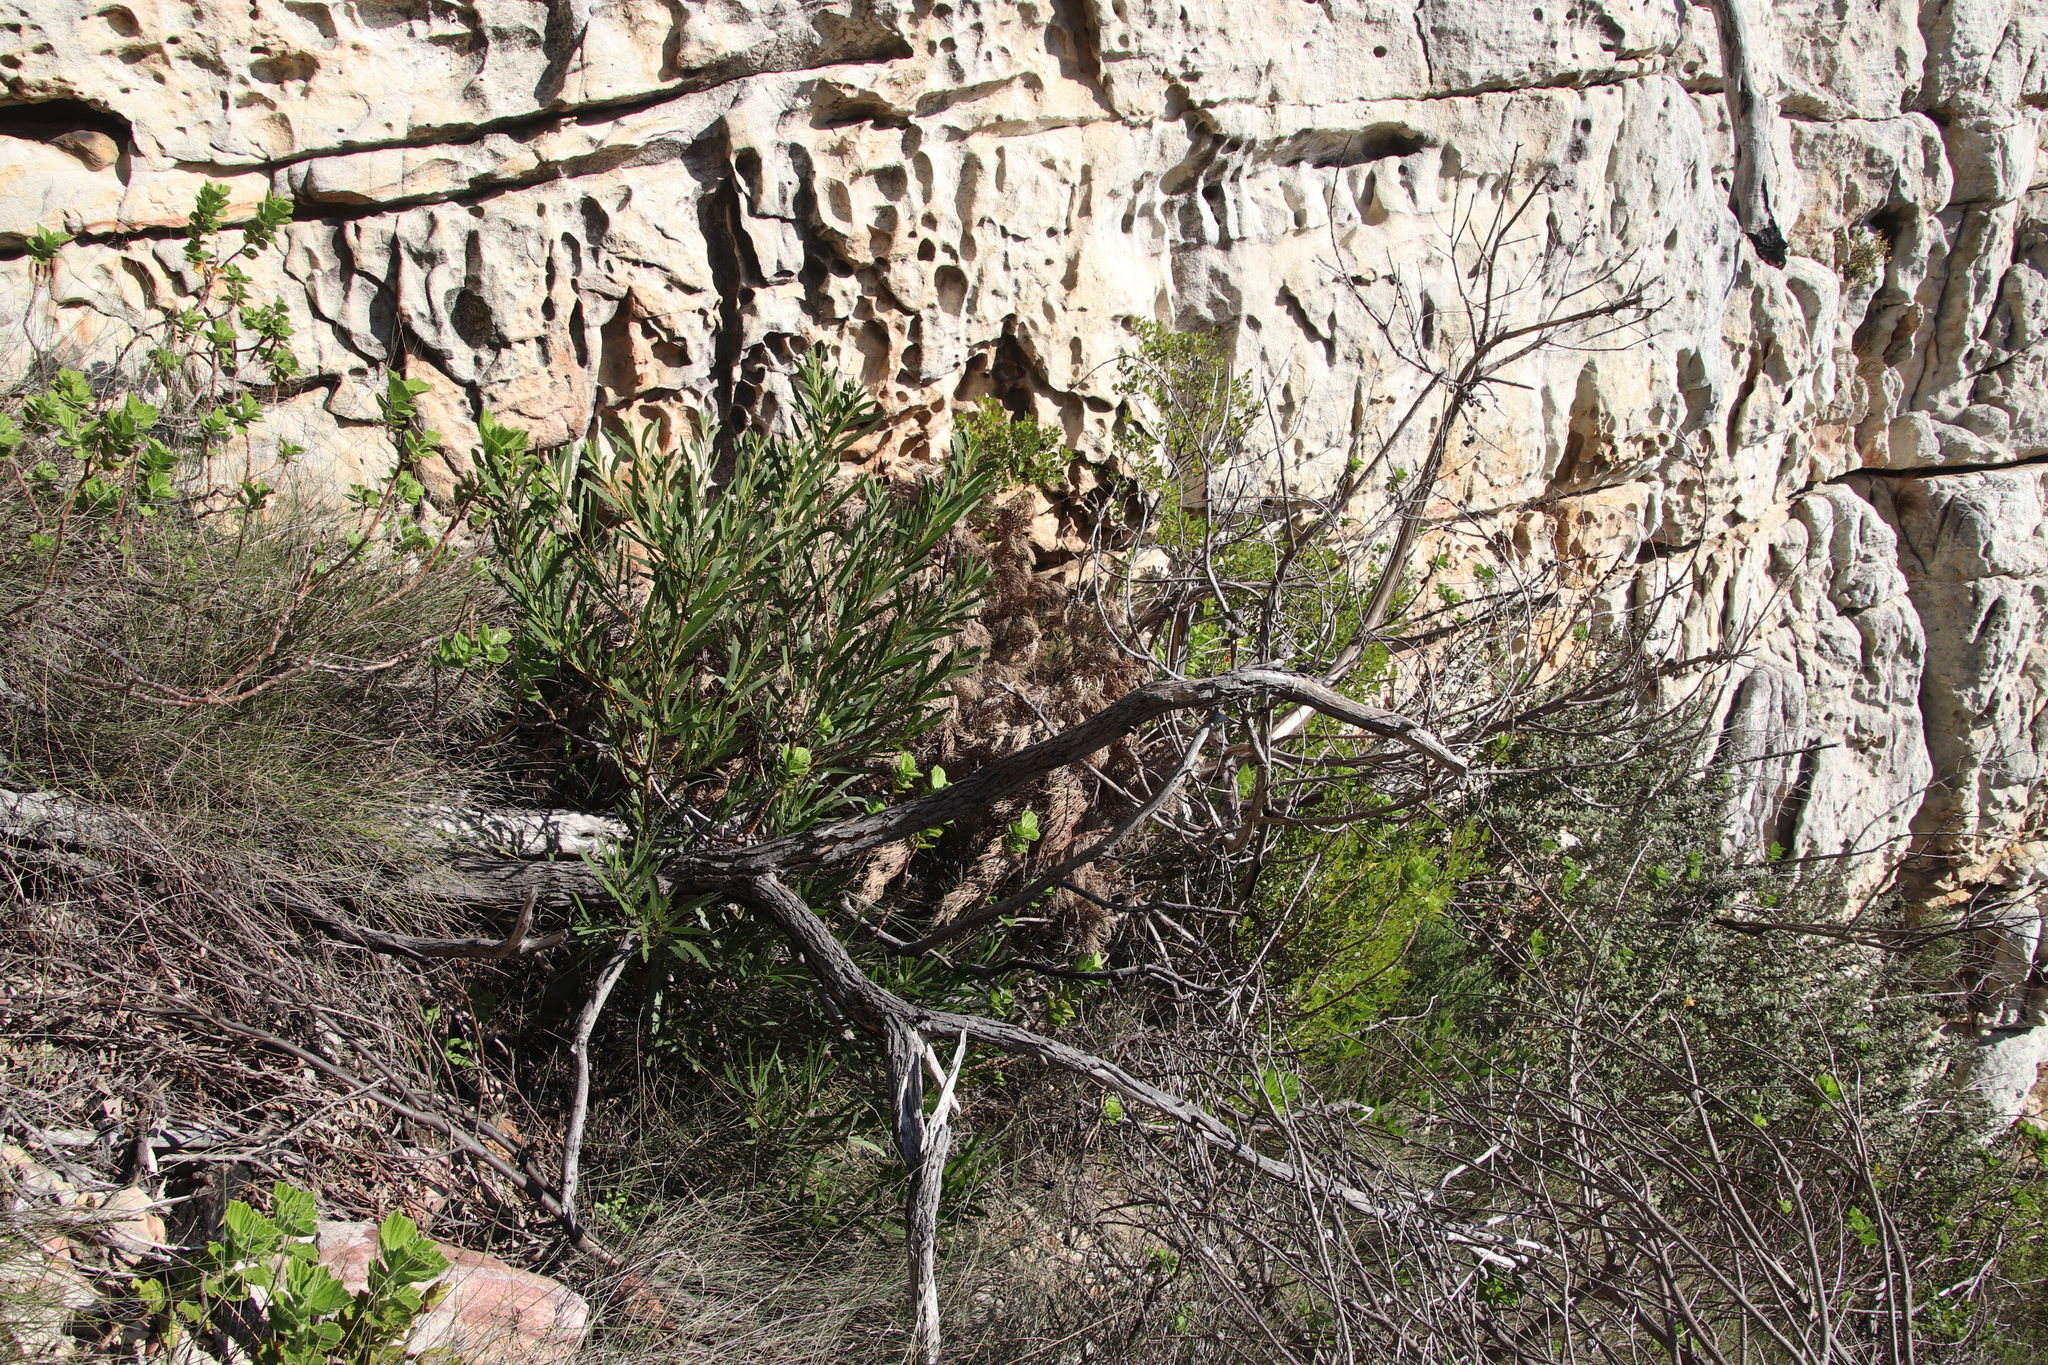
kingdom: Plantae
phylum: Tracheophyta
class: Magnoliopsida
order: Fabales
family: Fabaceae
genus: Acacia
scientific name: Acacia longifolia
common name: Sydney golden wattle
